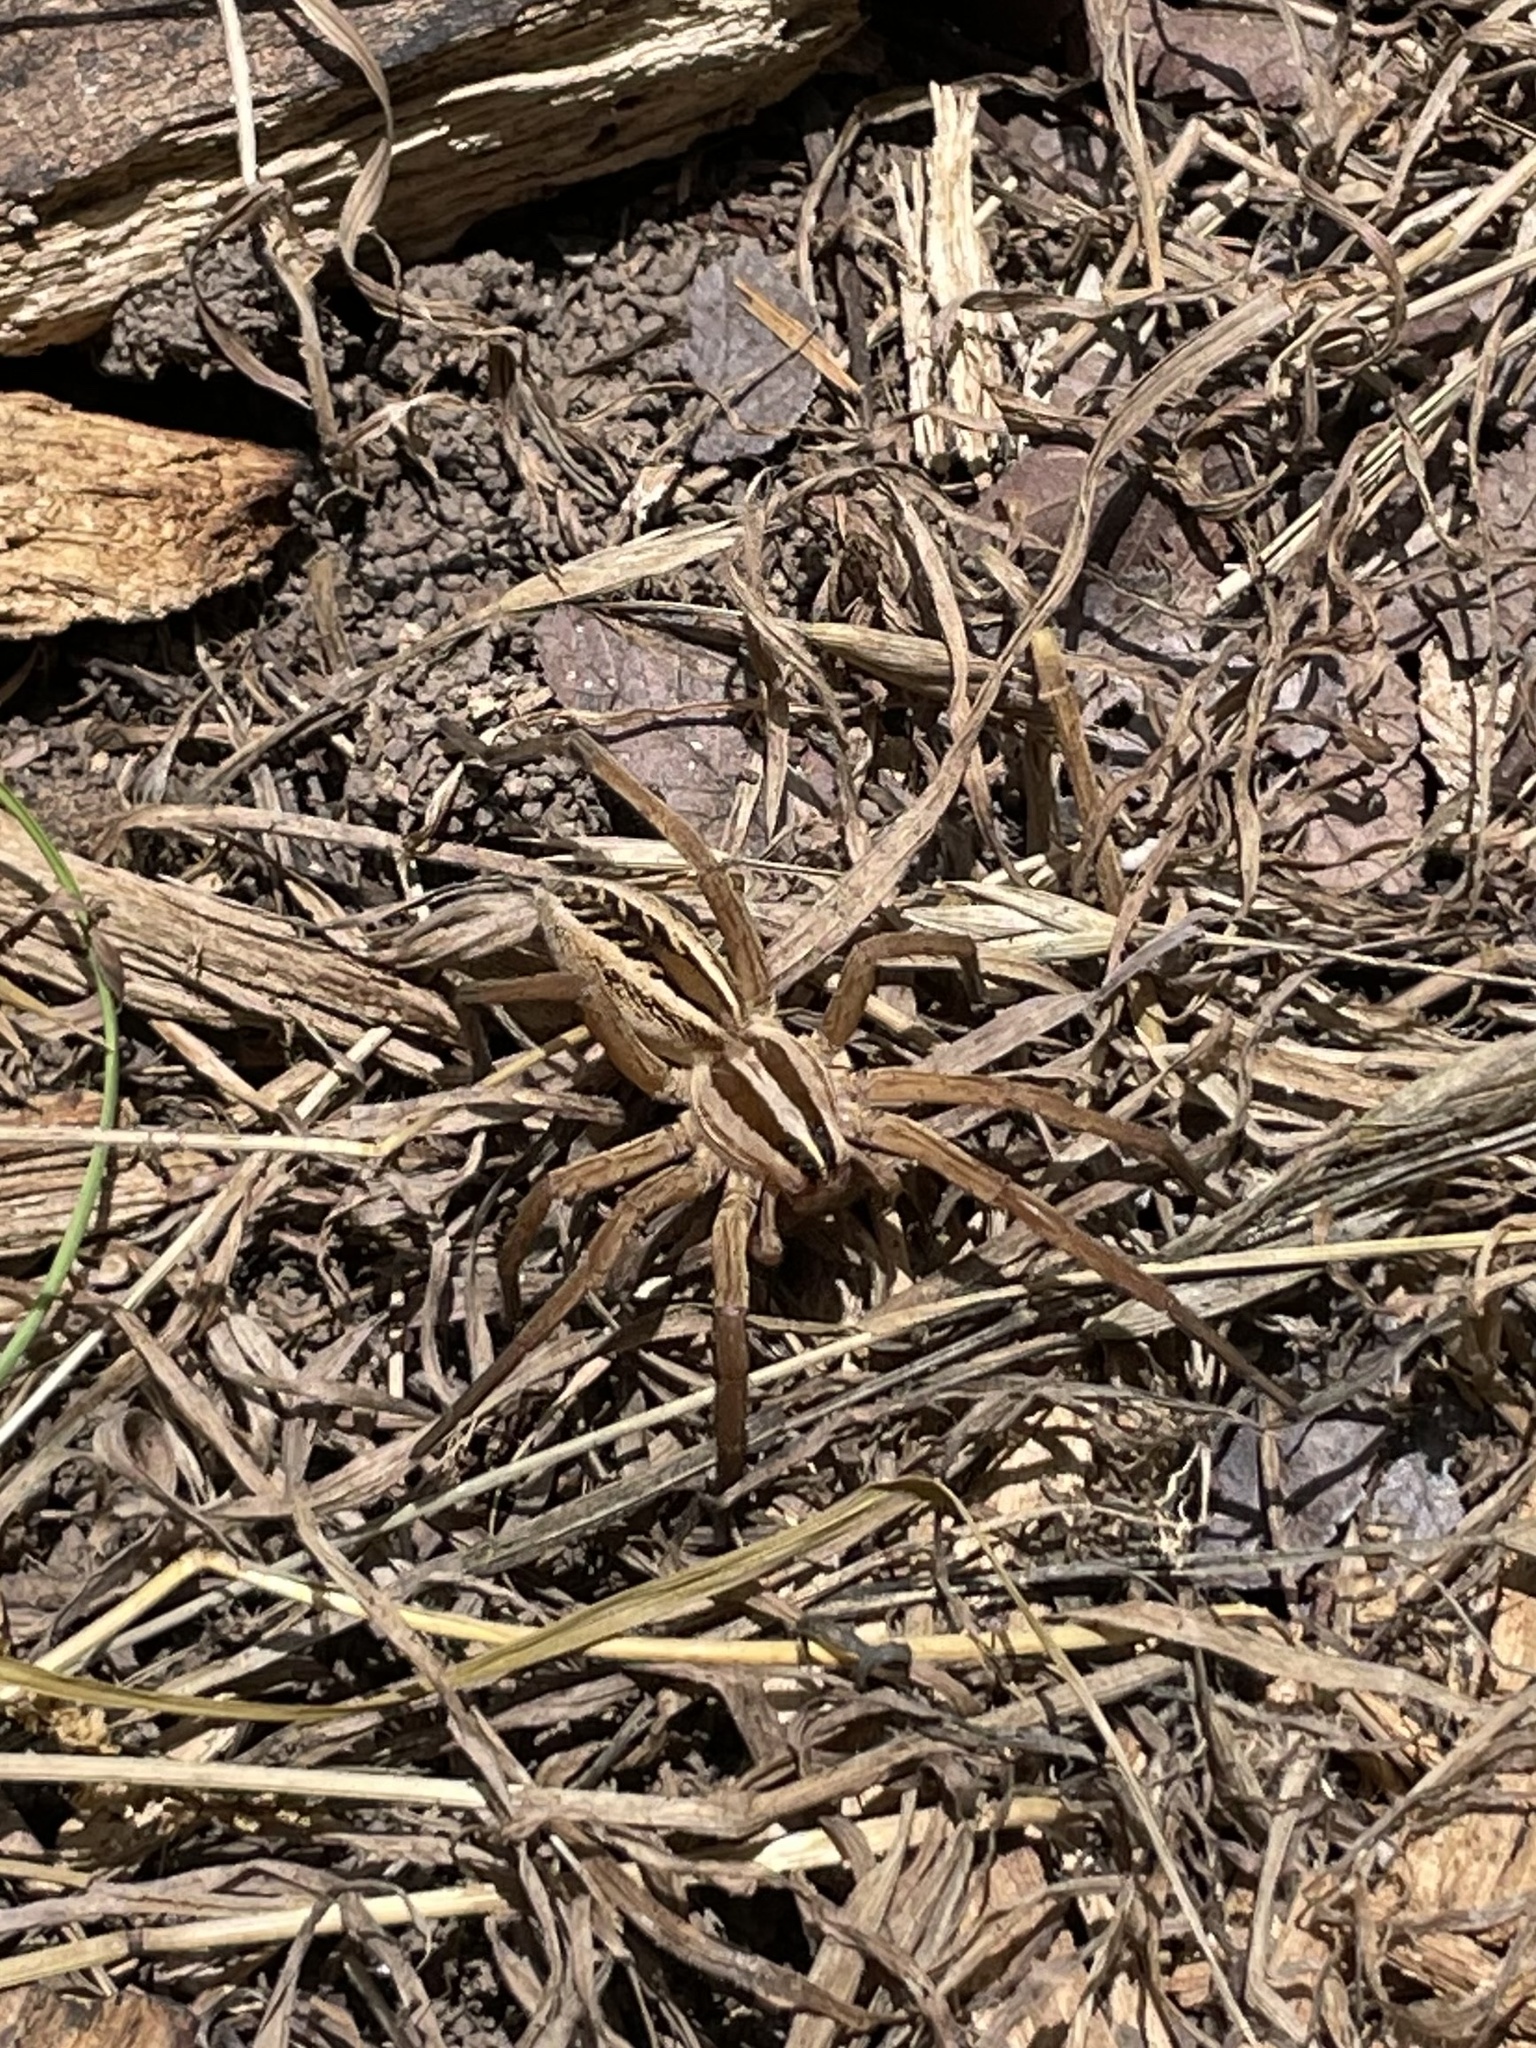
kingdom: Animalia
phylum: Arthropoda
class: Arachnida
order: Araneae
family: Lycosidae
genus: Rabidosa
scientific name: Rabidosa rabida
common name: Rabid wolf spider
